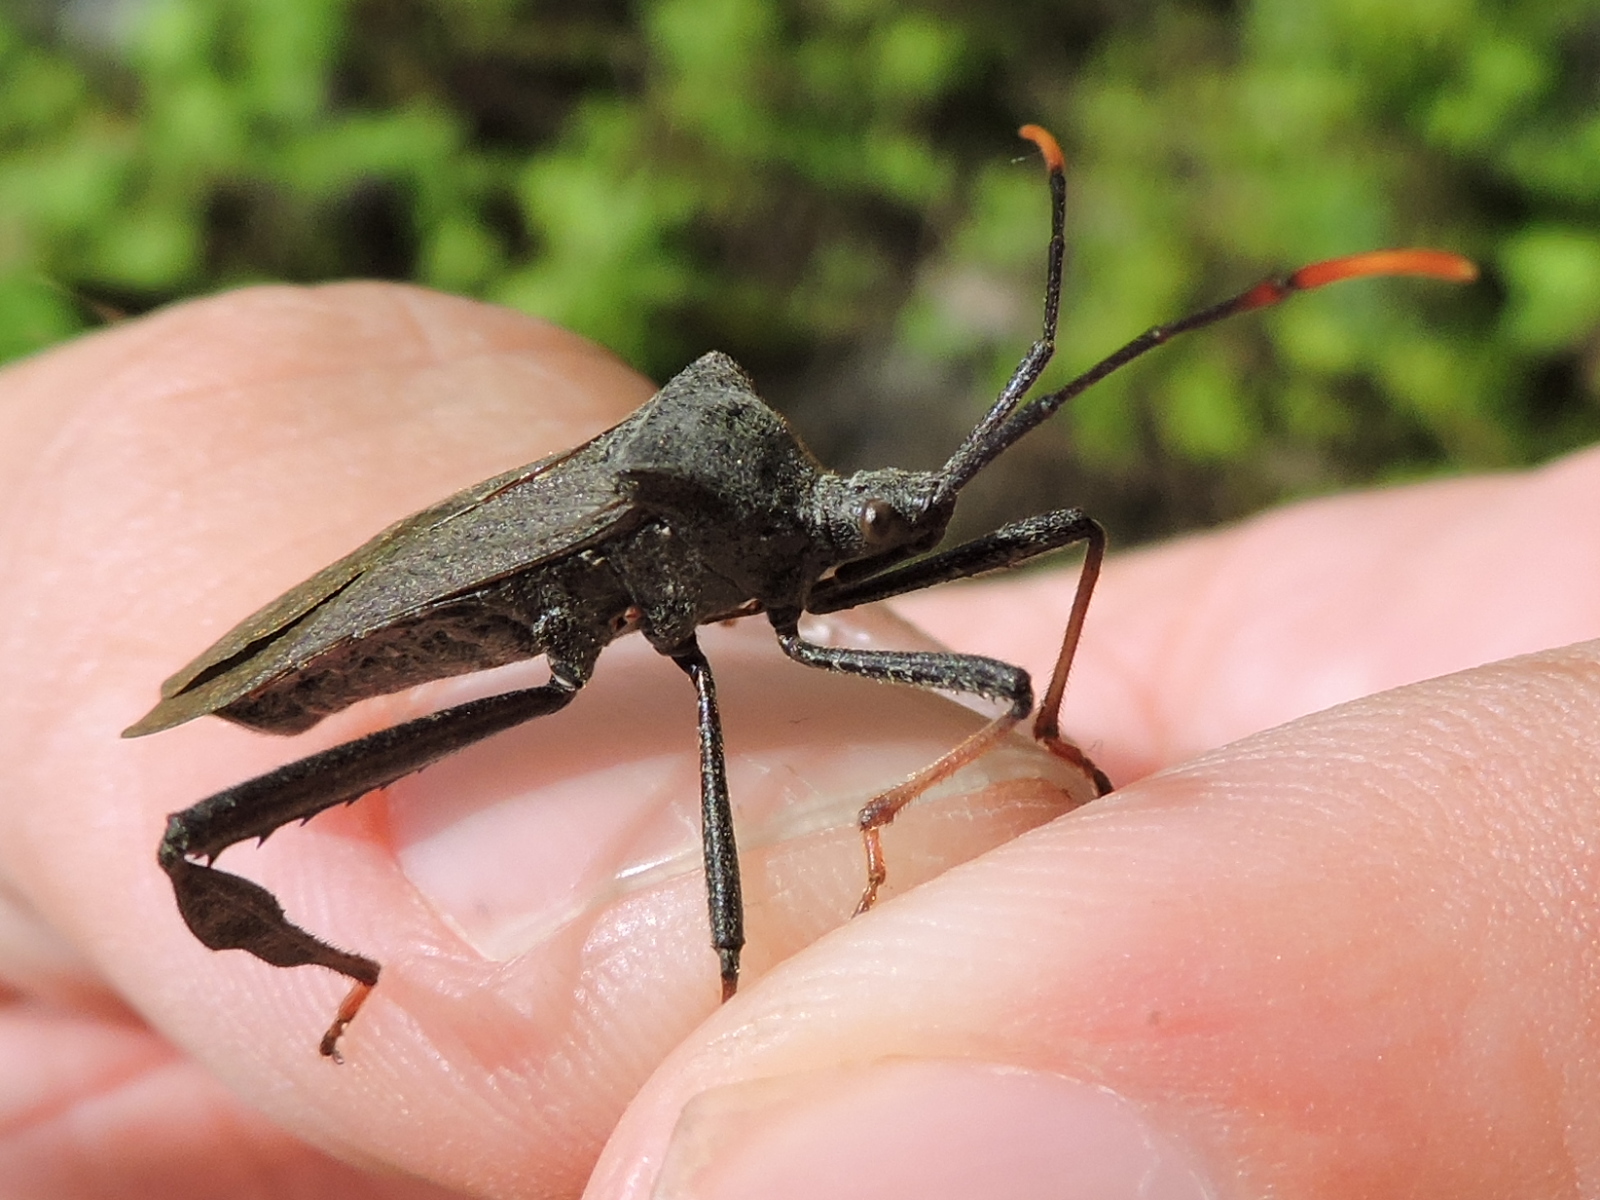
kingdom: Animalia
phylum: Arthropoda
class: Insecta
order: Hemiptera
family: Coreidae
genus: Acanthocephala
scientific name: Acanthocephala terminalis
